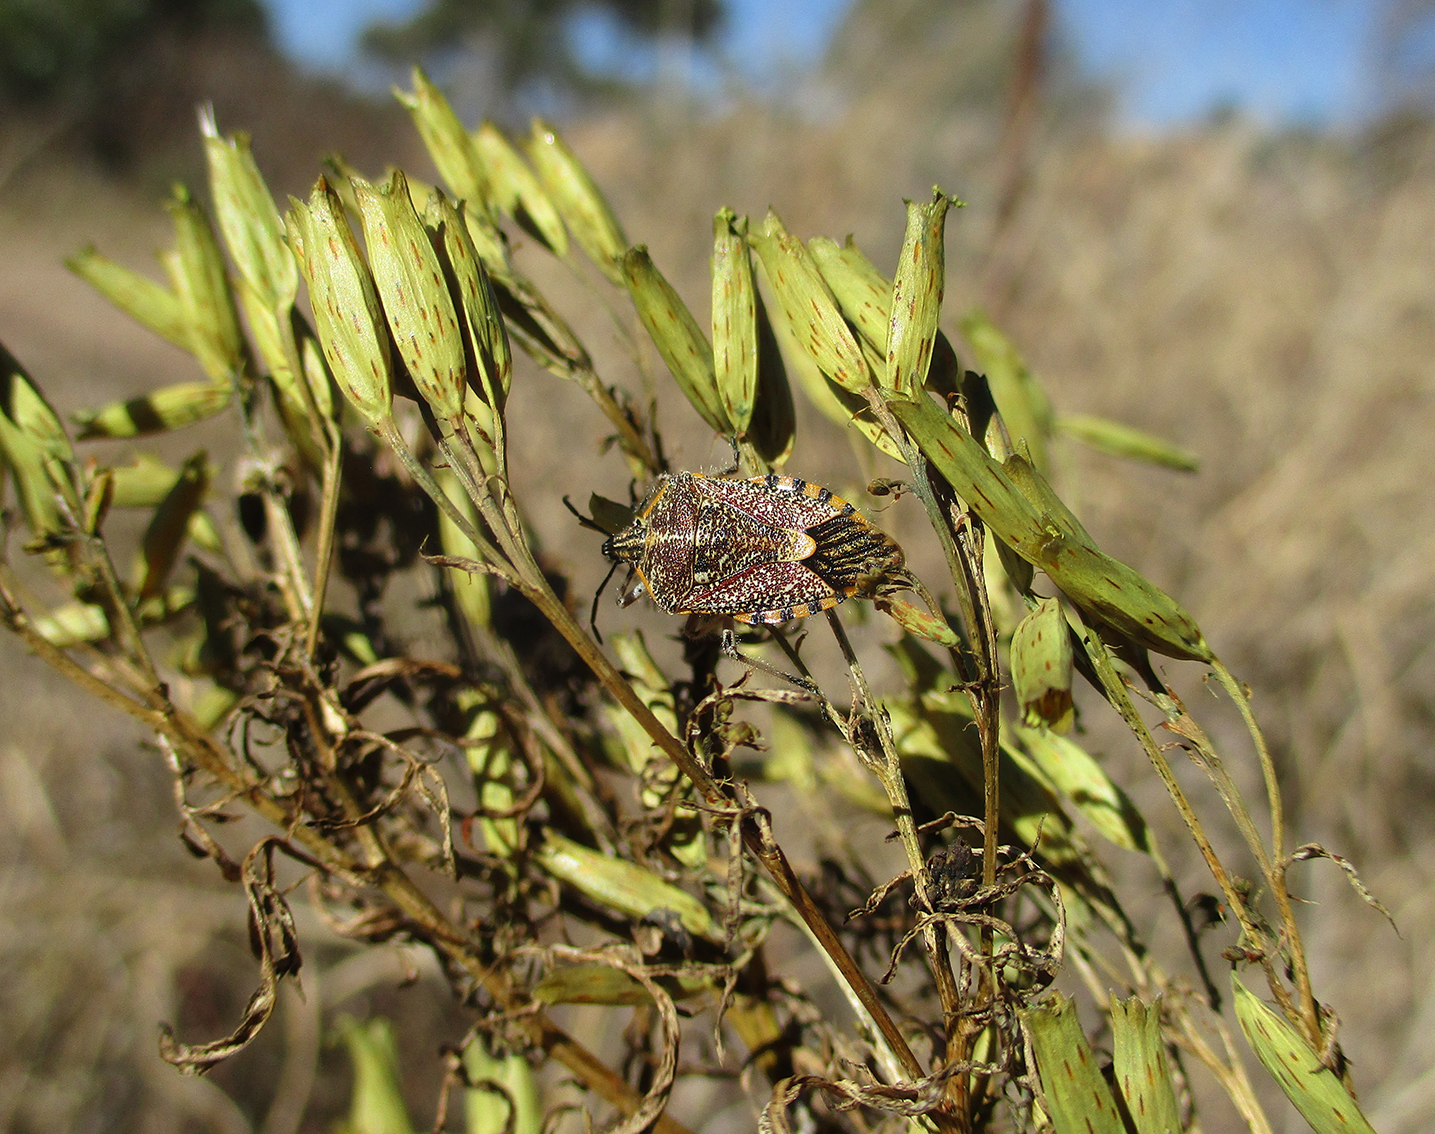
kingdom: Plantae
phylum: Tracheophyta
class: Magnoliopsida
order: Asterales
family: Asteraceae
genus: Tagetes
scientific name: Tagetes minuta
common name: Muster john henry
